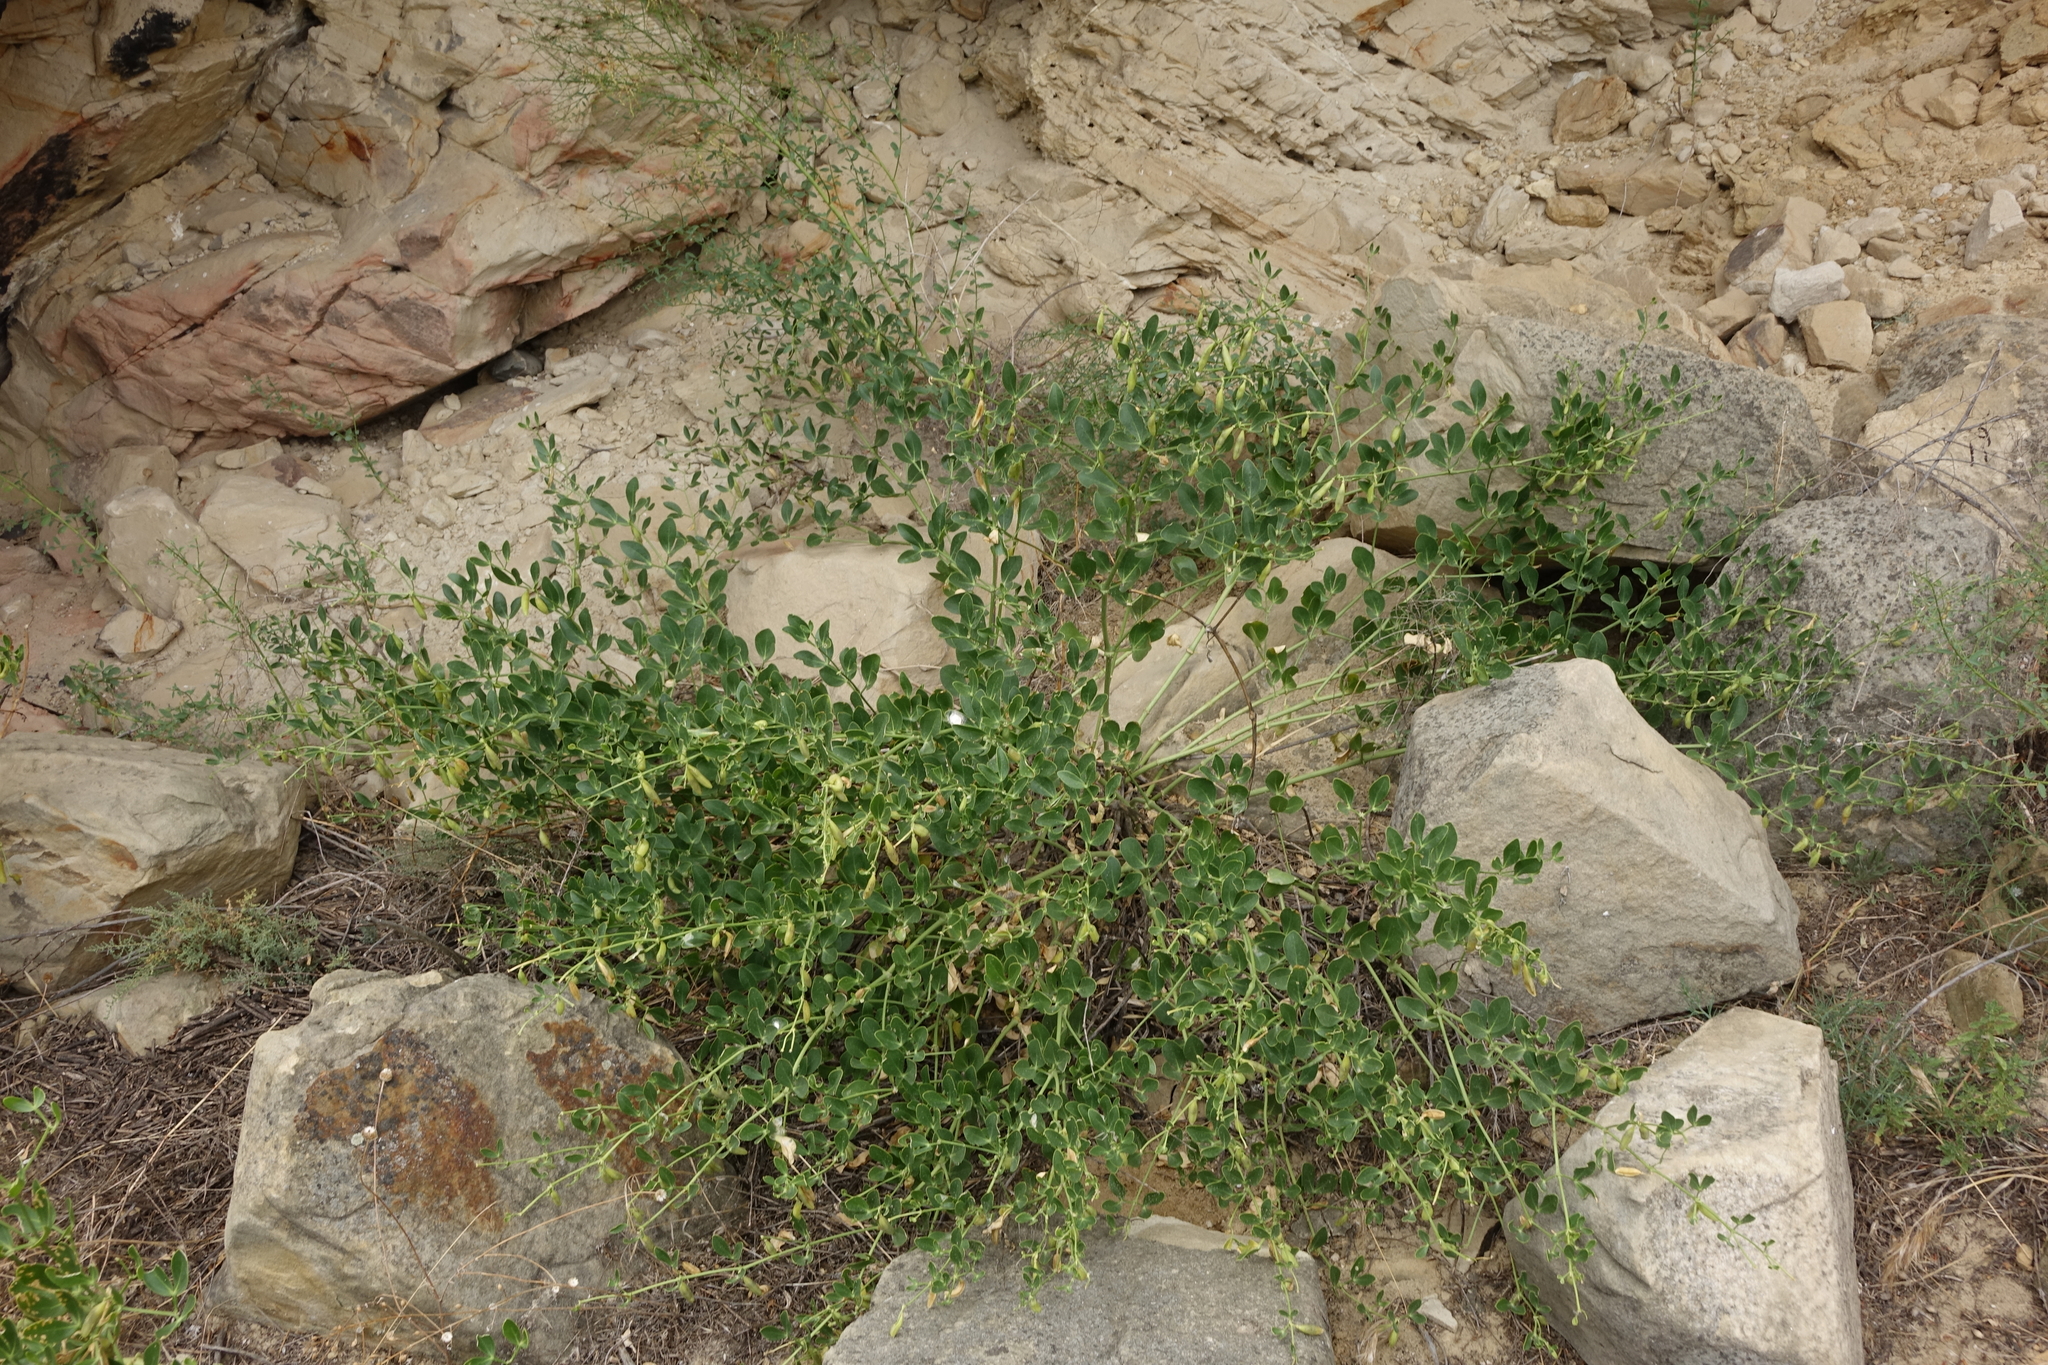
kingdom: Plantae
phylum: Tracheophyta
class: Magnoliopsida
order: Zygophyllales
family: Zygophyllaceae
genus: Zygophyllum
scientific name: Zygophyllum fabago
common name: Syrian beancaper
